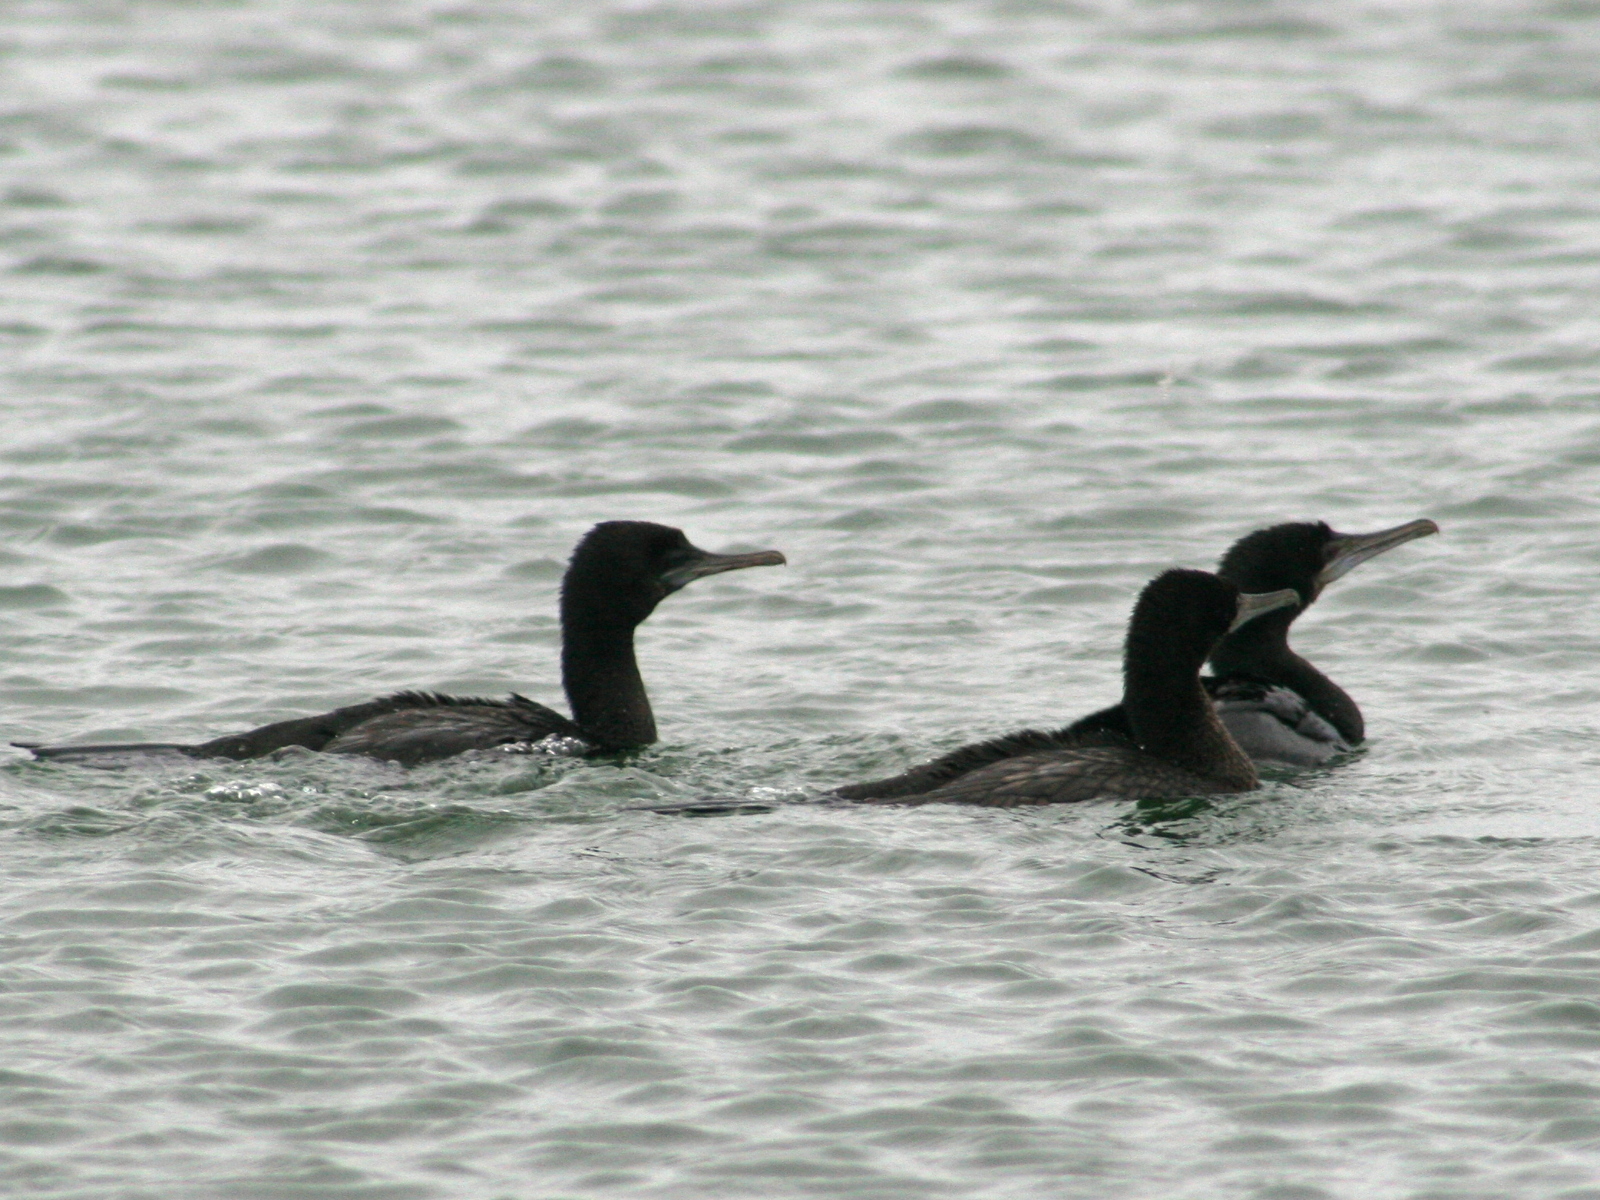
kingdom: Animalia
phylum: Chordata
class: Aves
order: Suliformes
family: Phalacrocoracidae
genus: Phalacrocorax
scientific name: Phalacrocorax sulcirostris
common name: Little black cormorant
